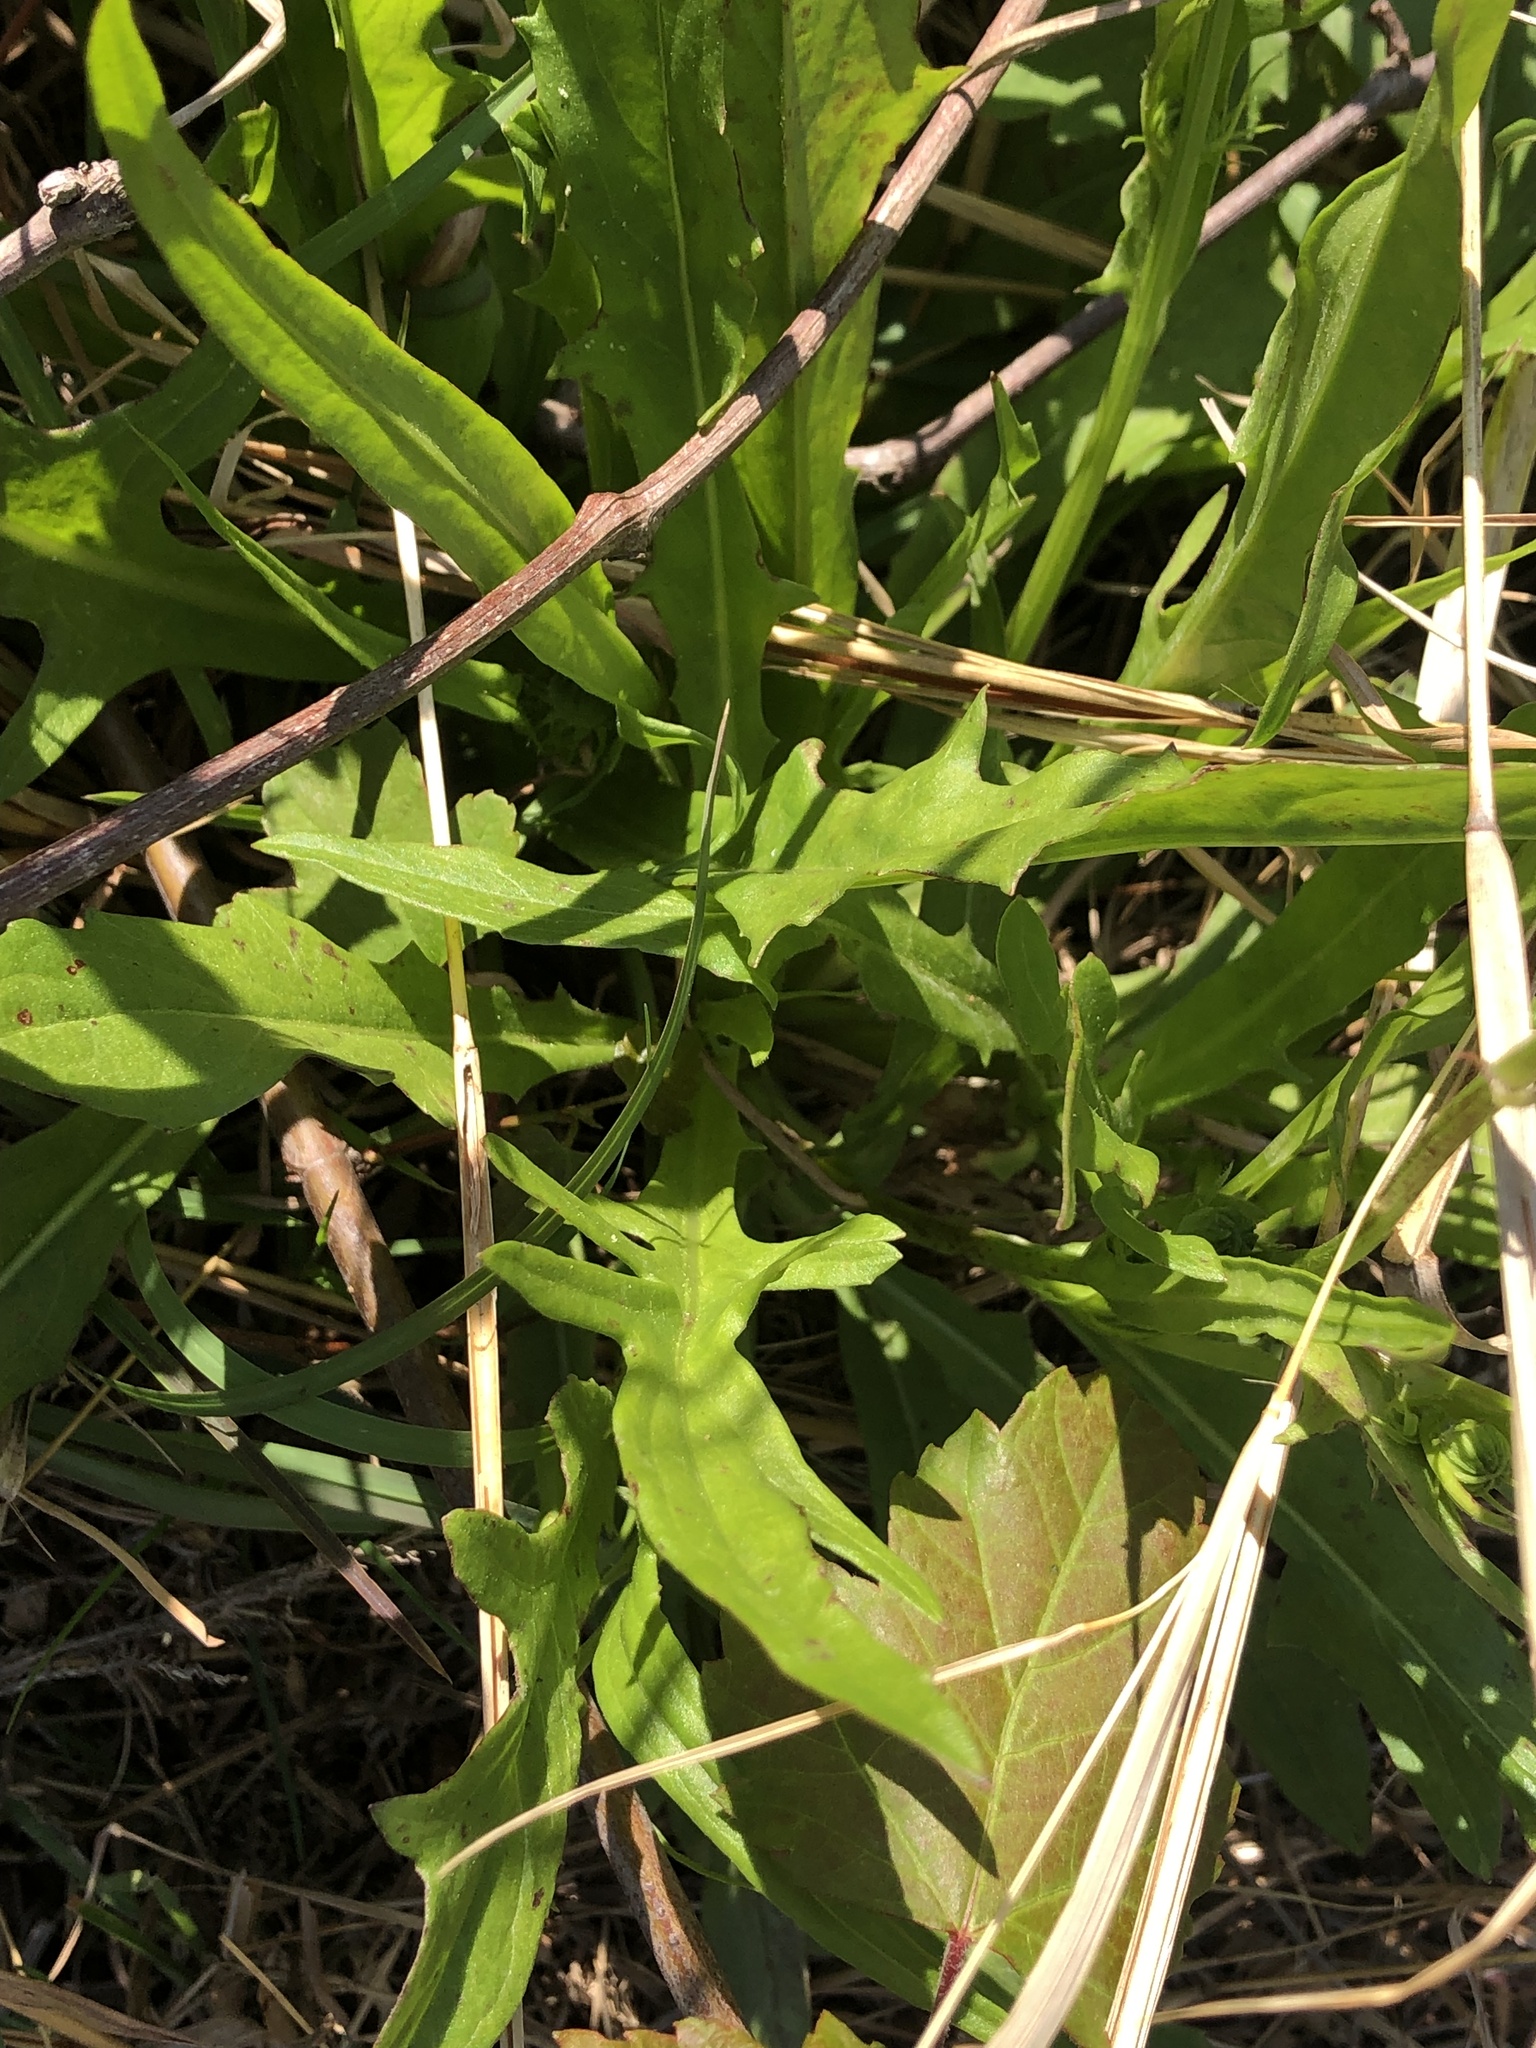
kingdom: Plantae
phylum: Tracheophyta
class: Magnoliopsida
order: Asterales
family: Asteraceae
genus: Pyrrhopappus
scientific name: Pyrrhopappus carolinianus
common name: Carolina desert-chicory
